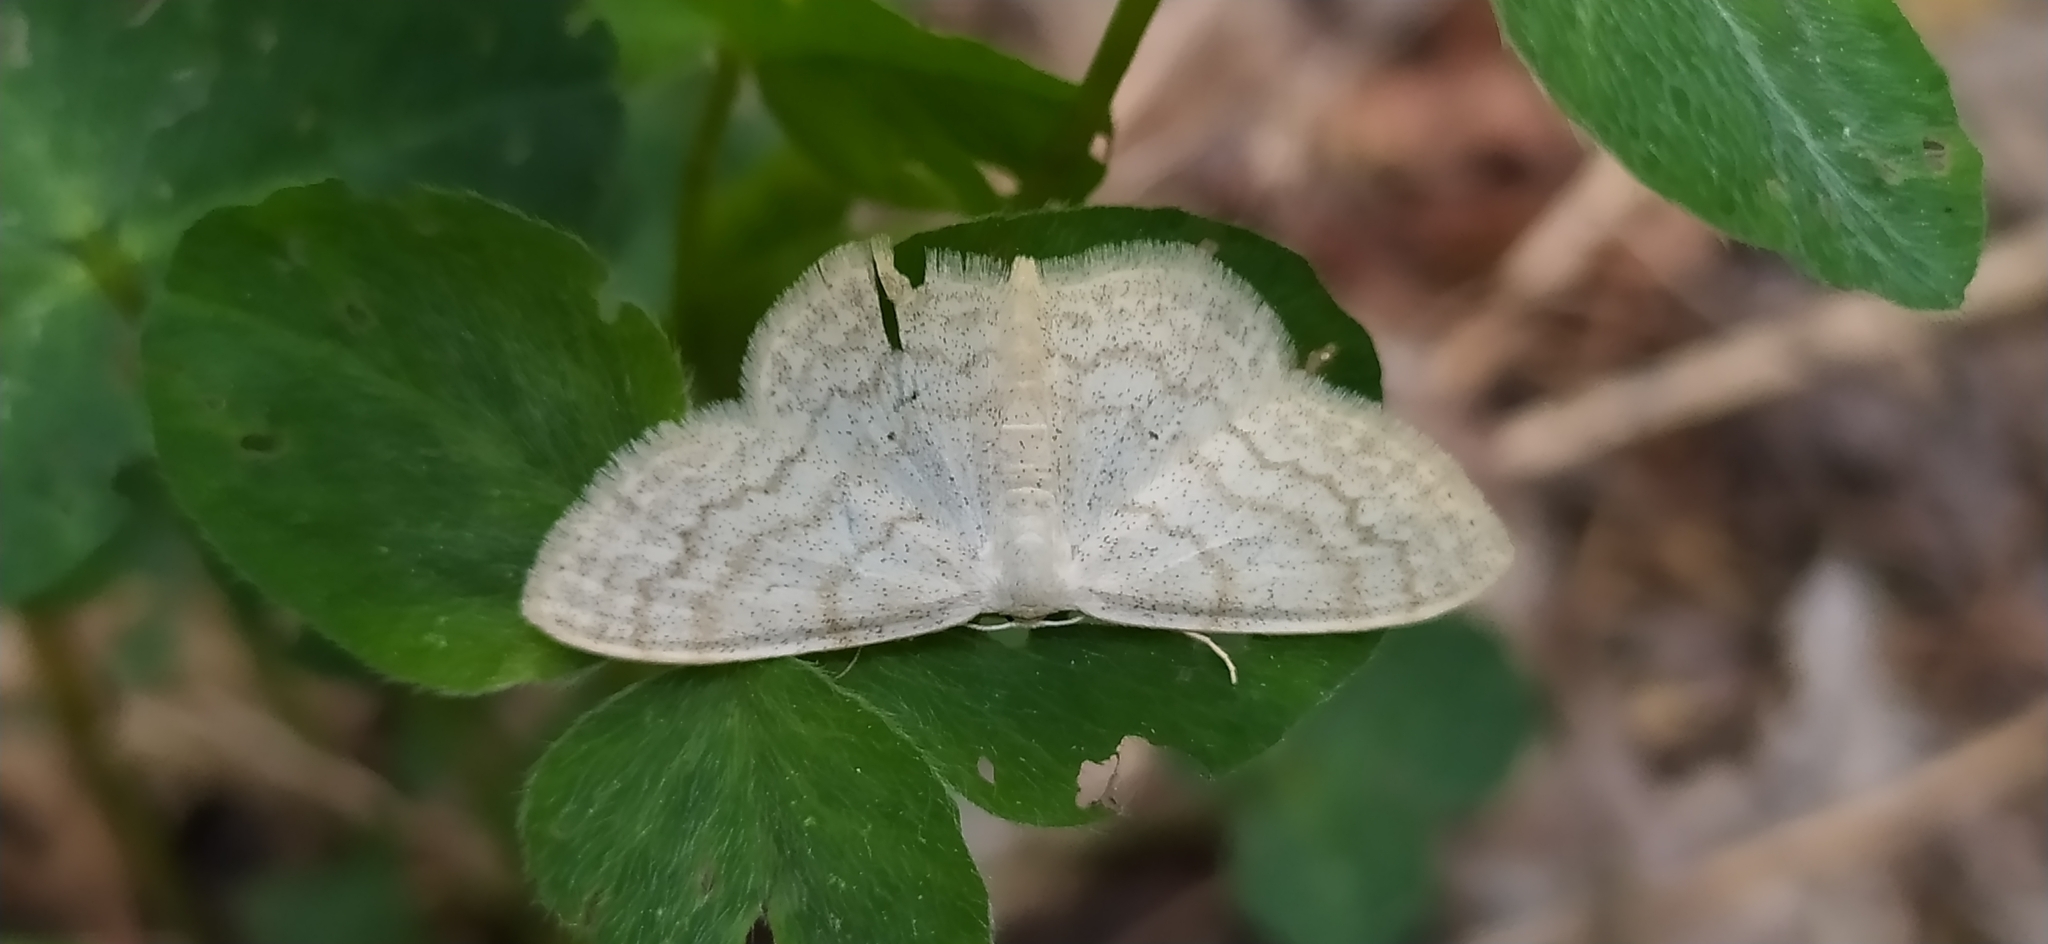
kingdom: Animalia
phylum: Arthropoda
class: Insecta
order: Lepidoptera
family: Geometridae
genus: Scopula
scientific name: Scopula floslactata
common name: Cream wave
